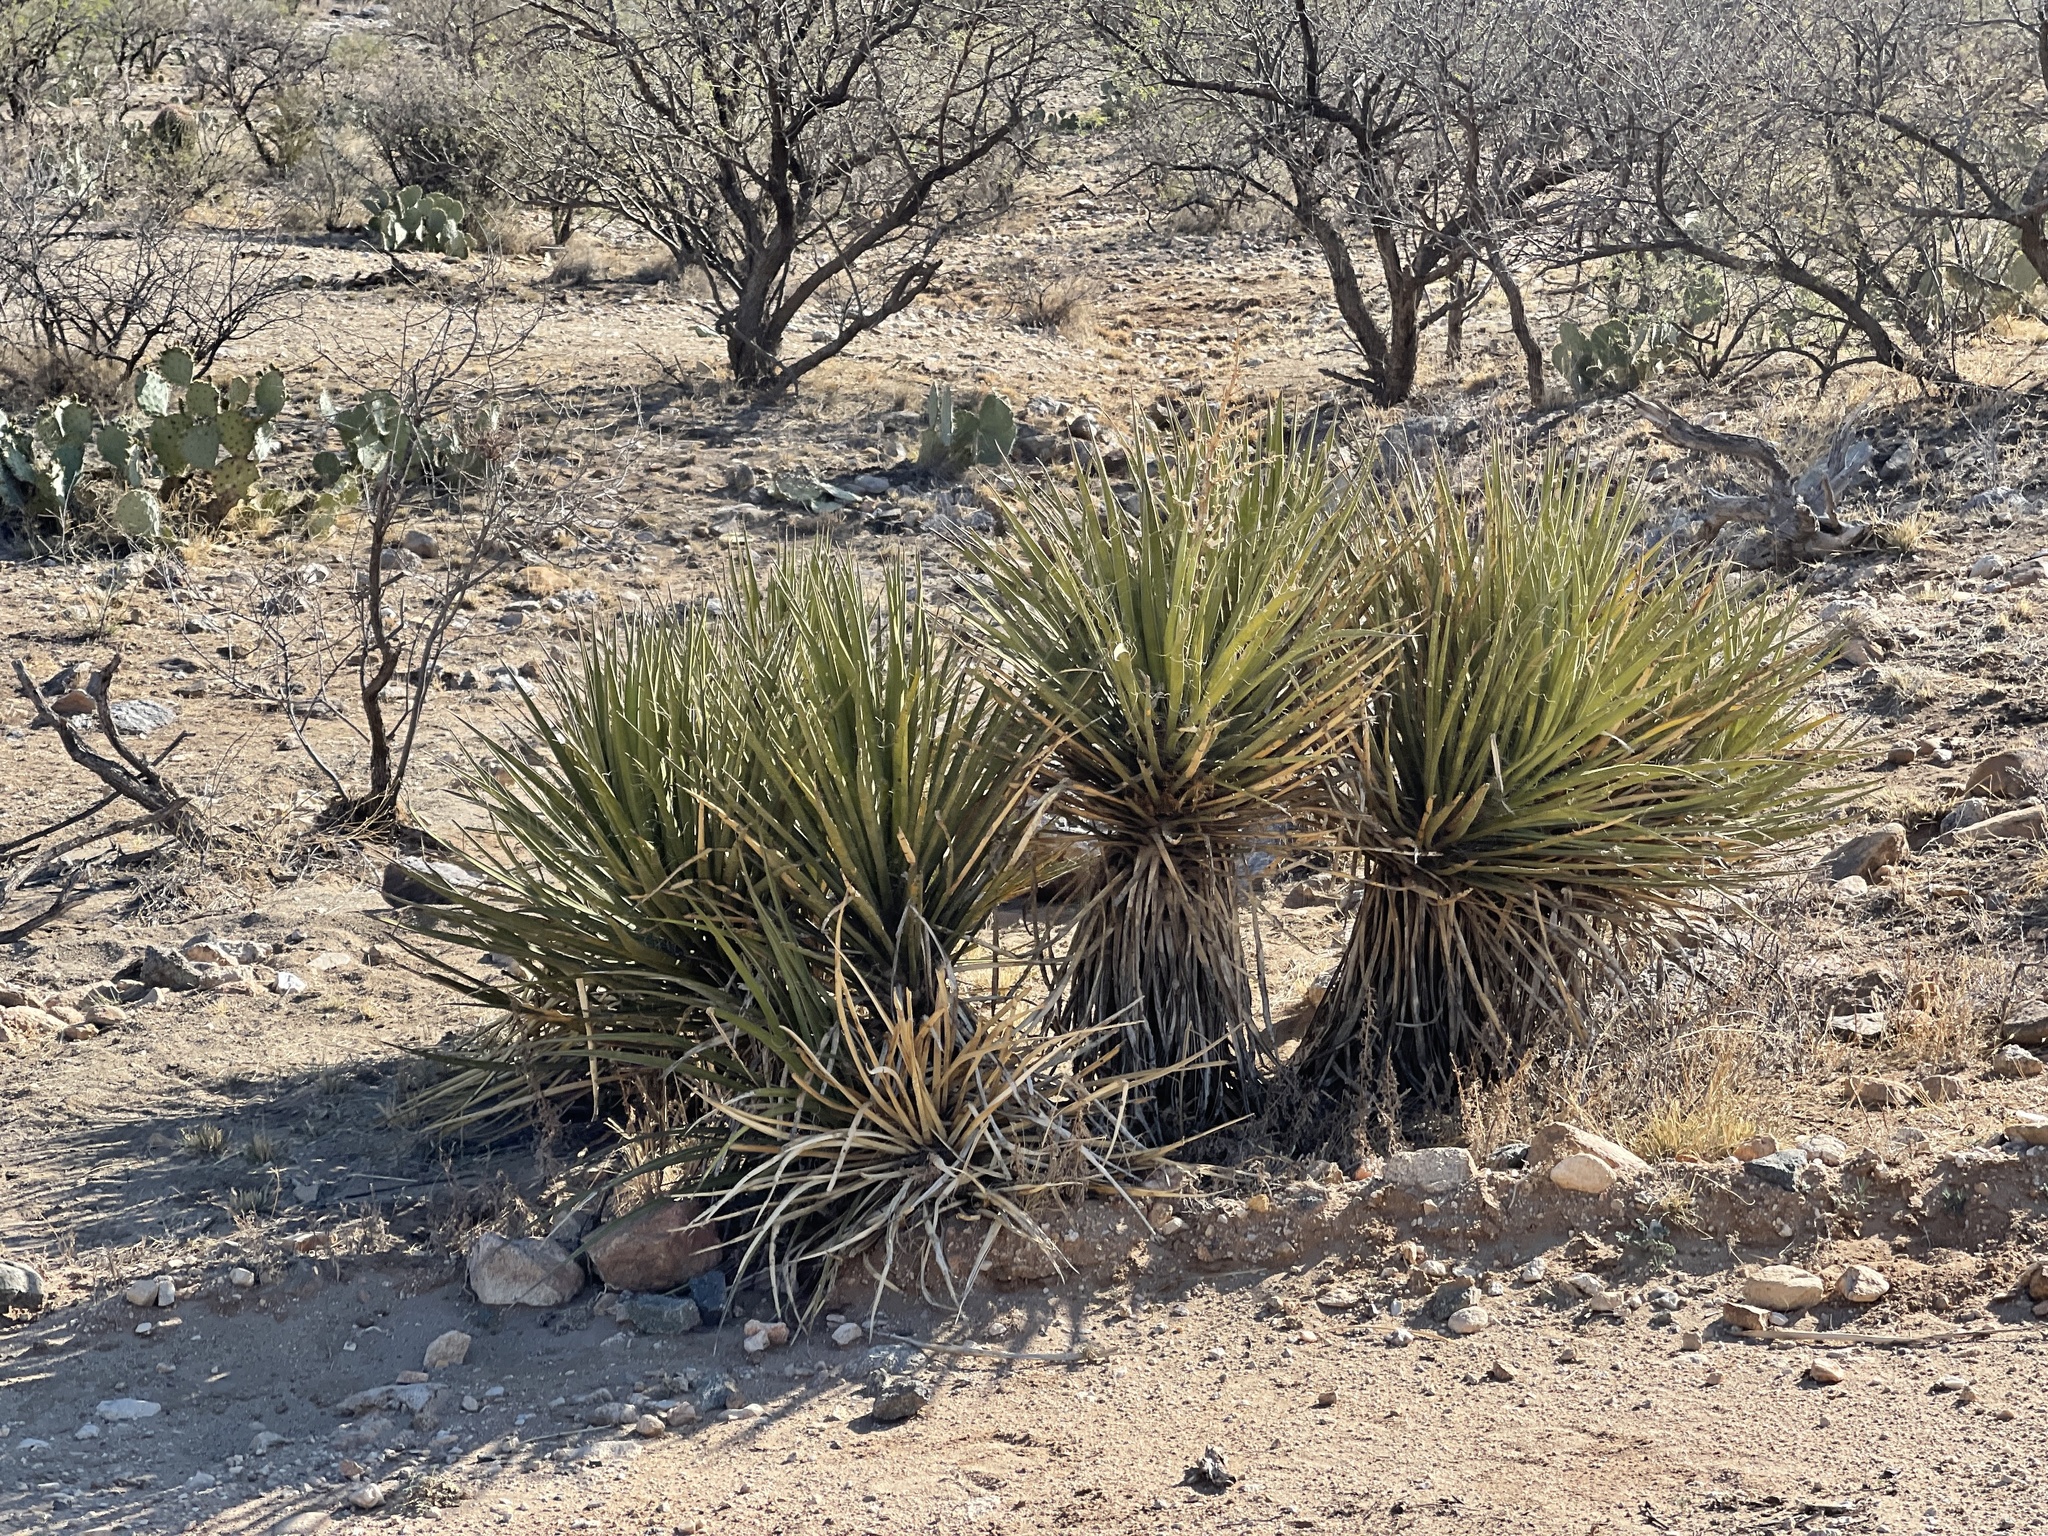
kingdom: Plantae
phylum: Tracheophyta
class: Liliopsida
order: Asparagales
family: Asparagaceae
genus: Yucca
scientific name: Yucca baccata
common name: Banana yucca
